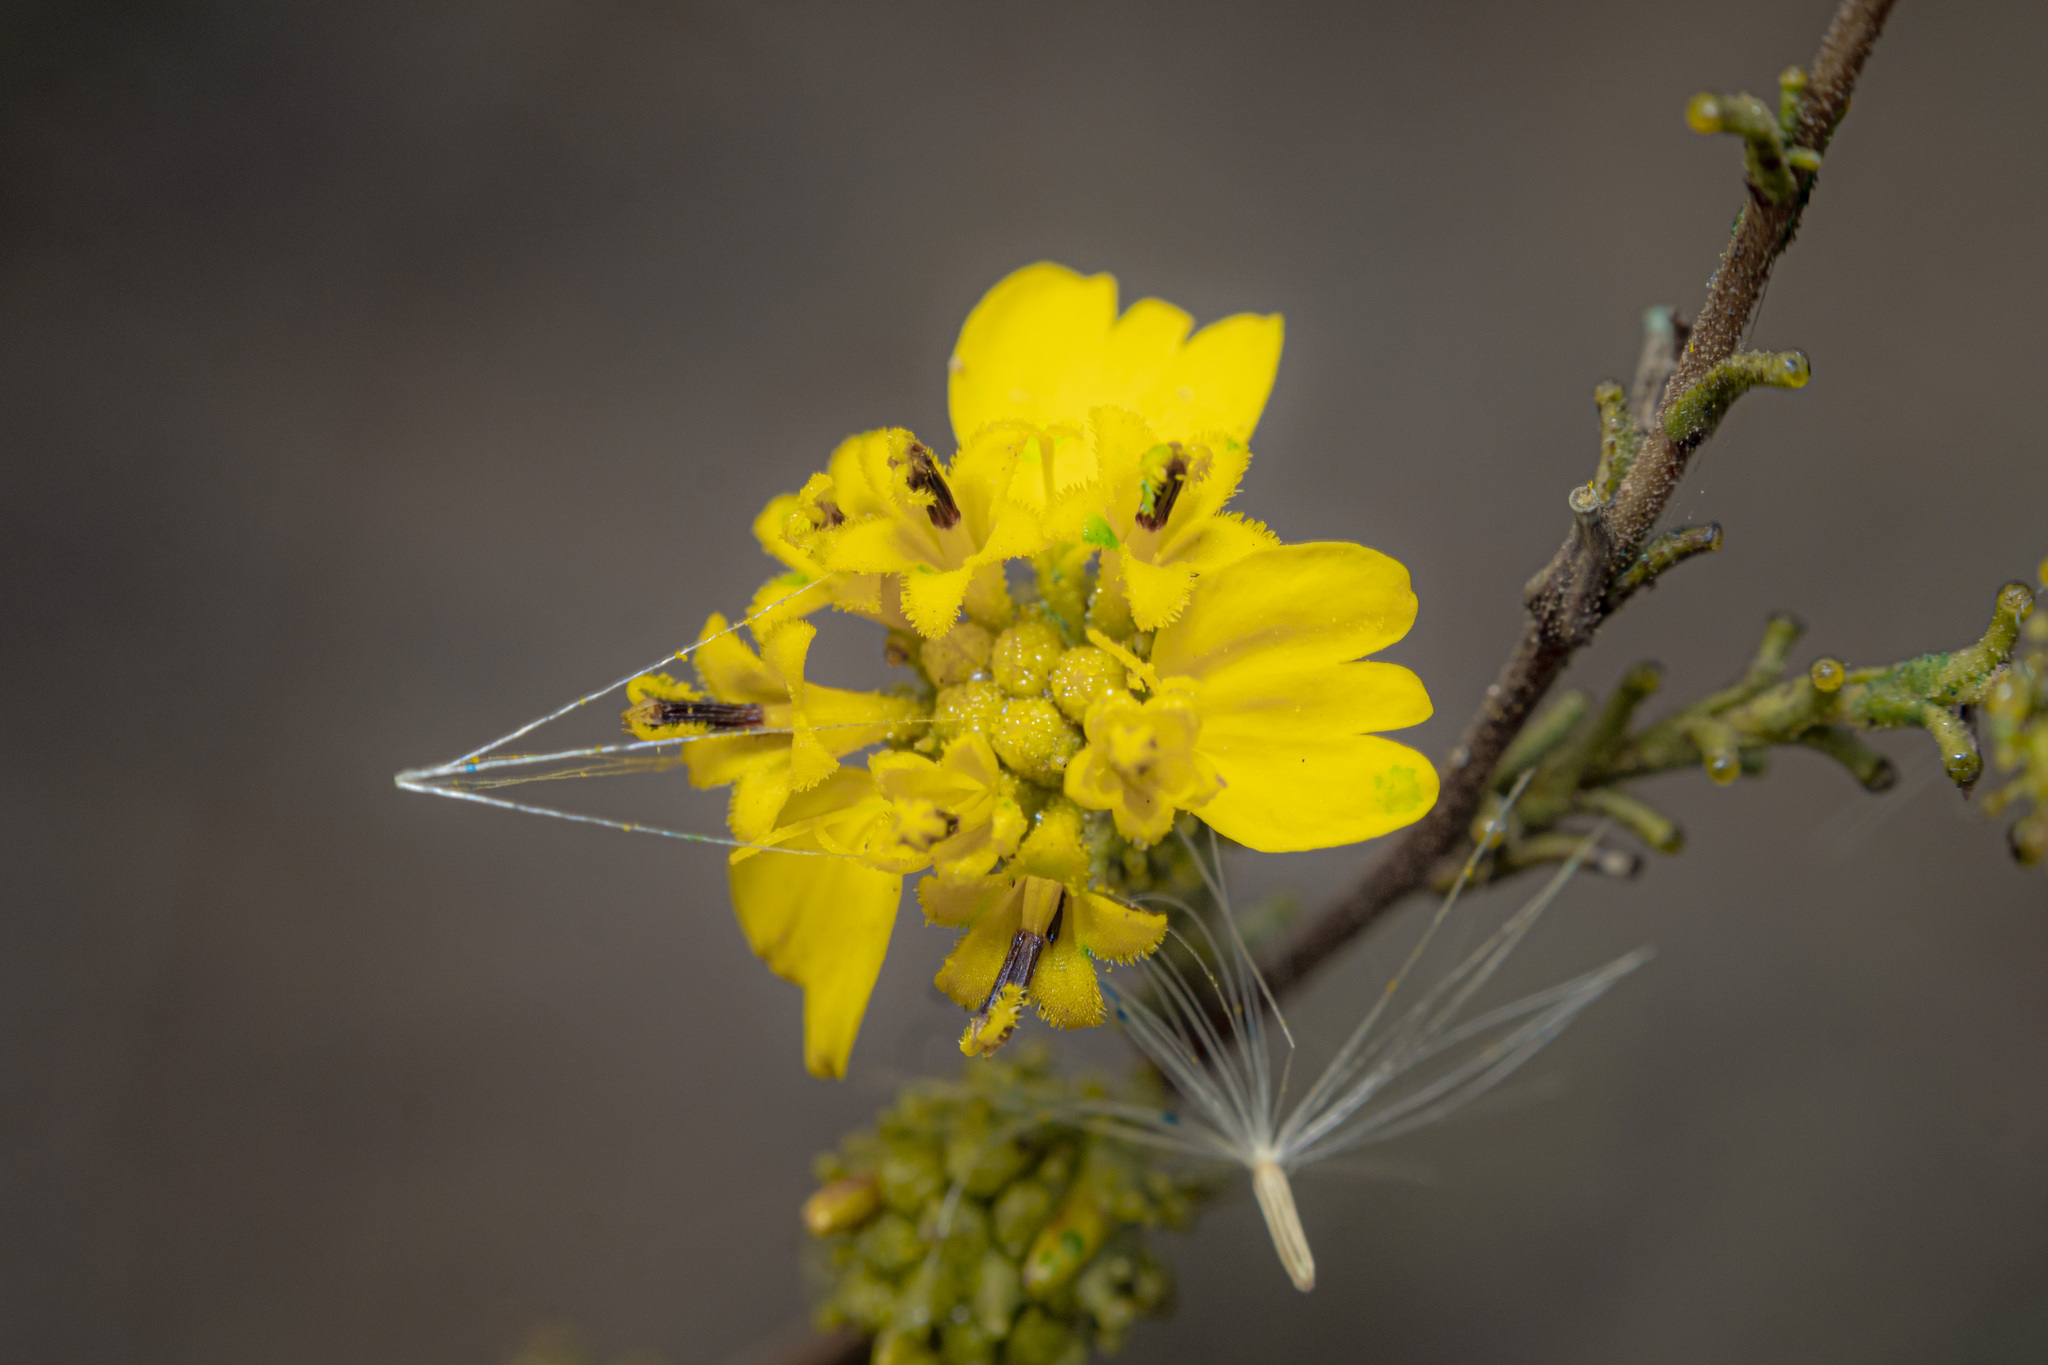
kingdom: Plantae
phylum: Tracheophyta
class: Magnoliopsida
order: Asterales
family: Asteraceae
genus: Holocarpha
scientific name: Holocarpha virgata
